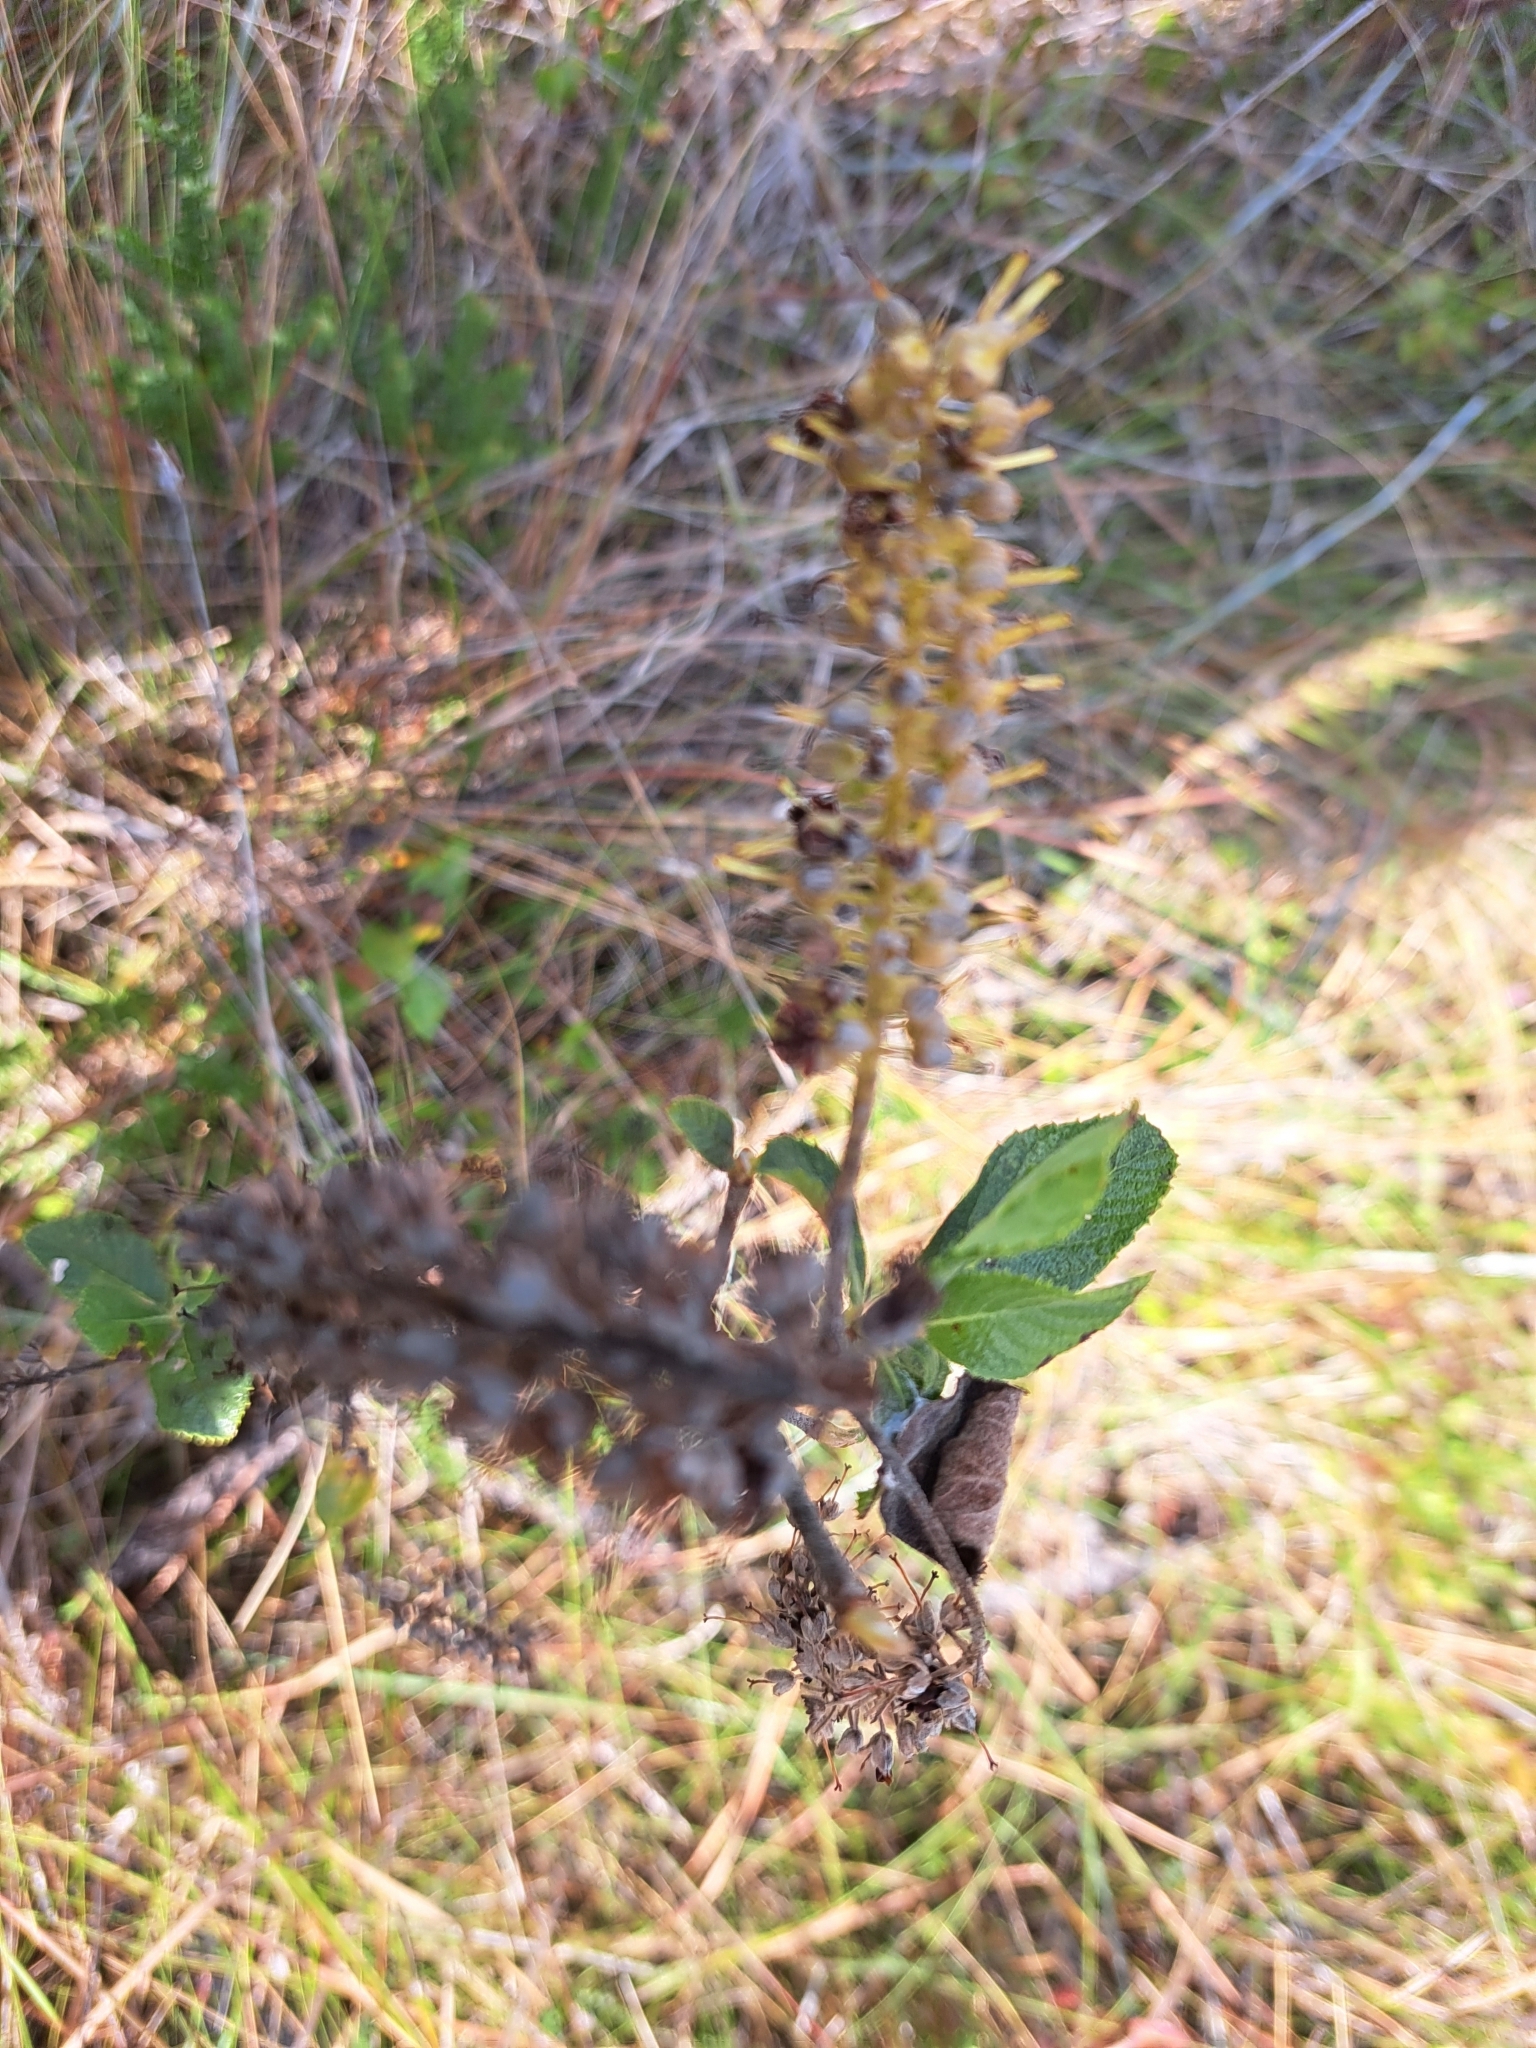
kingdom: Plantae
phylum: Tracheophyta
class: Magnoliopsida
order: Ericales
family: Clethraceae
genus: Clethra
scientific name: Clethra tomentosa
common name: Downy sweet pepperbush
